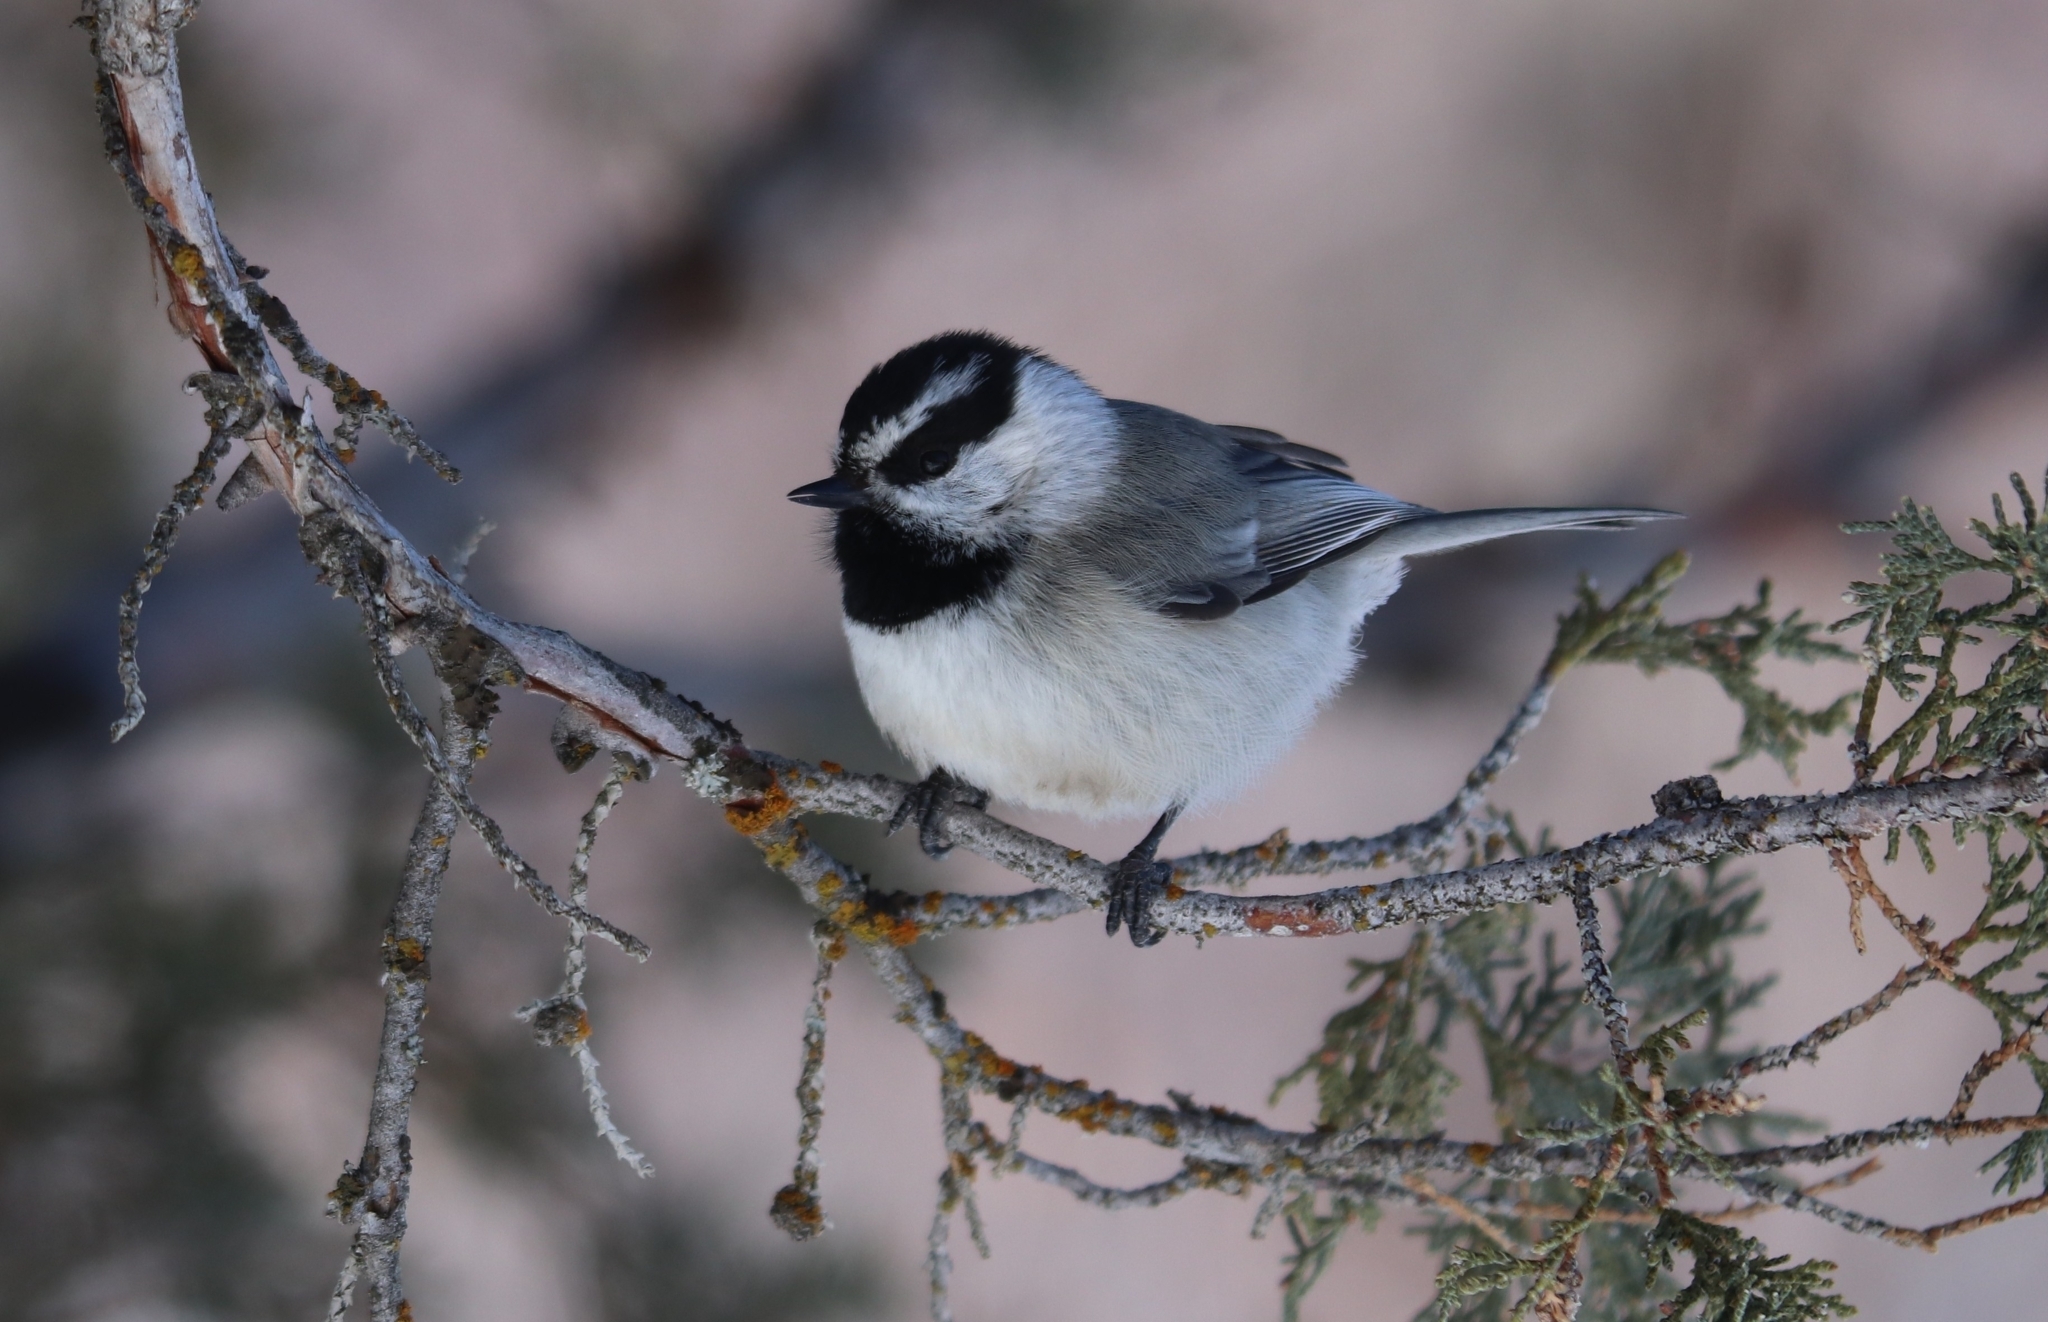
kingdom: Animalia
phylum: Chordata
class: Aves
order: Passeriformes
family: Paridae
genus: Poecile
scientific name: Poecile gambeli
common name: Mountain chickadee
